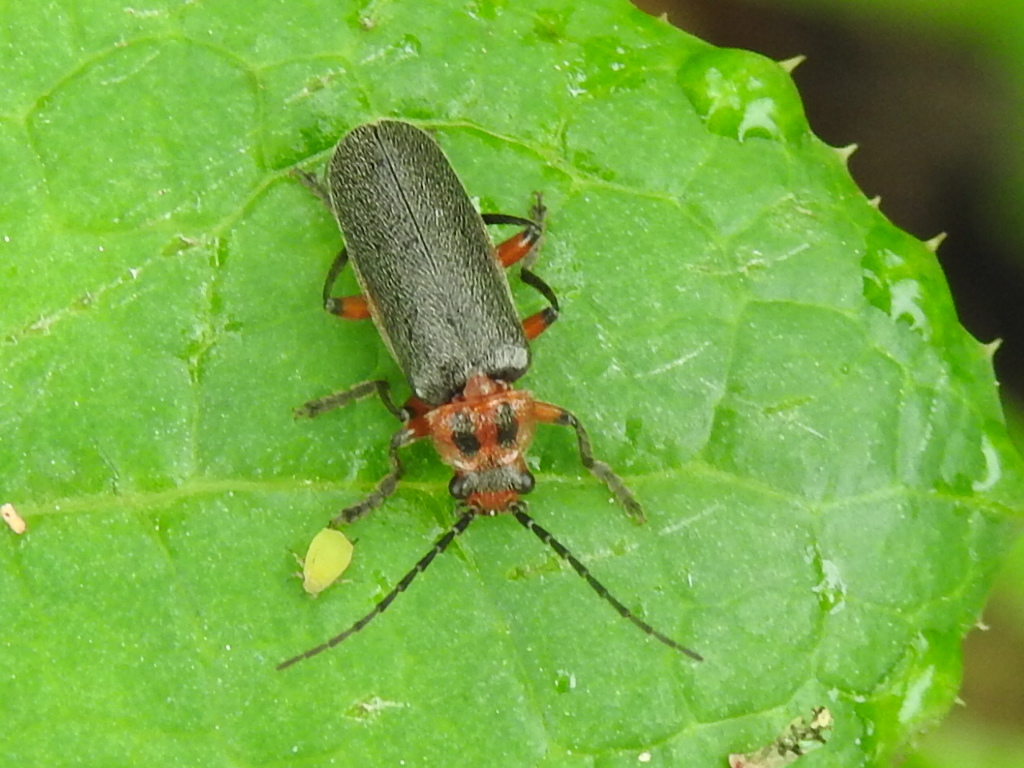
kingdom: Animalia
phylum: Arthropoda
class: Insecta
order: Coleoptera
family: Cantharidae
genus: Atalantycha
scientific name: Atalantycha bilineata
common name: Two-lined leatherwing
